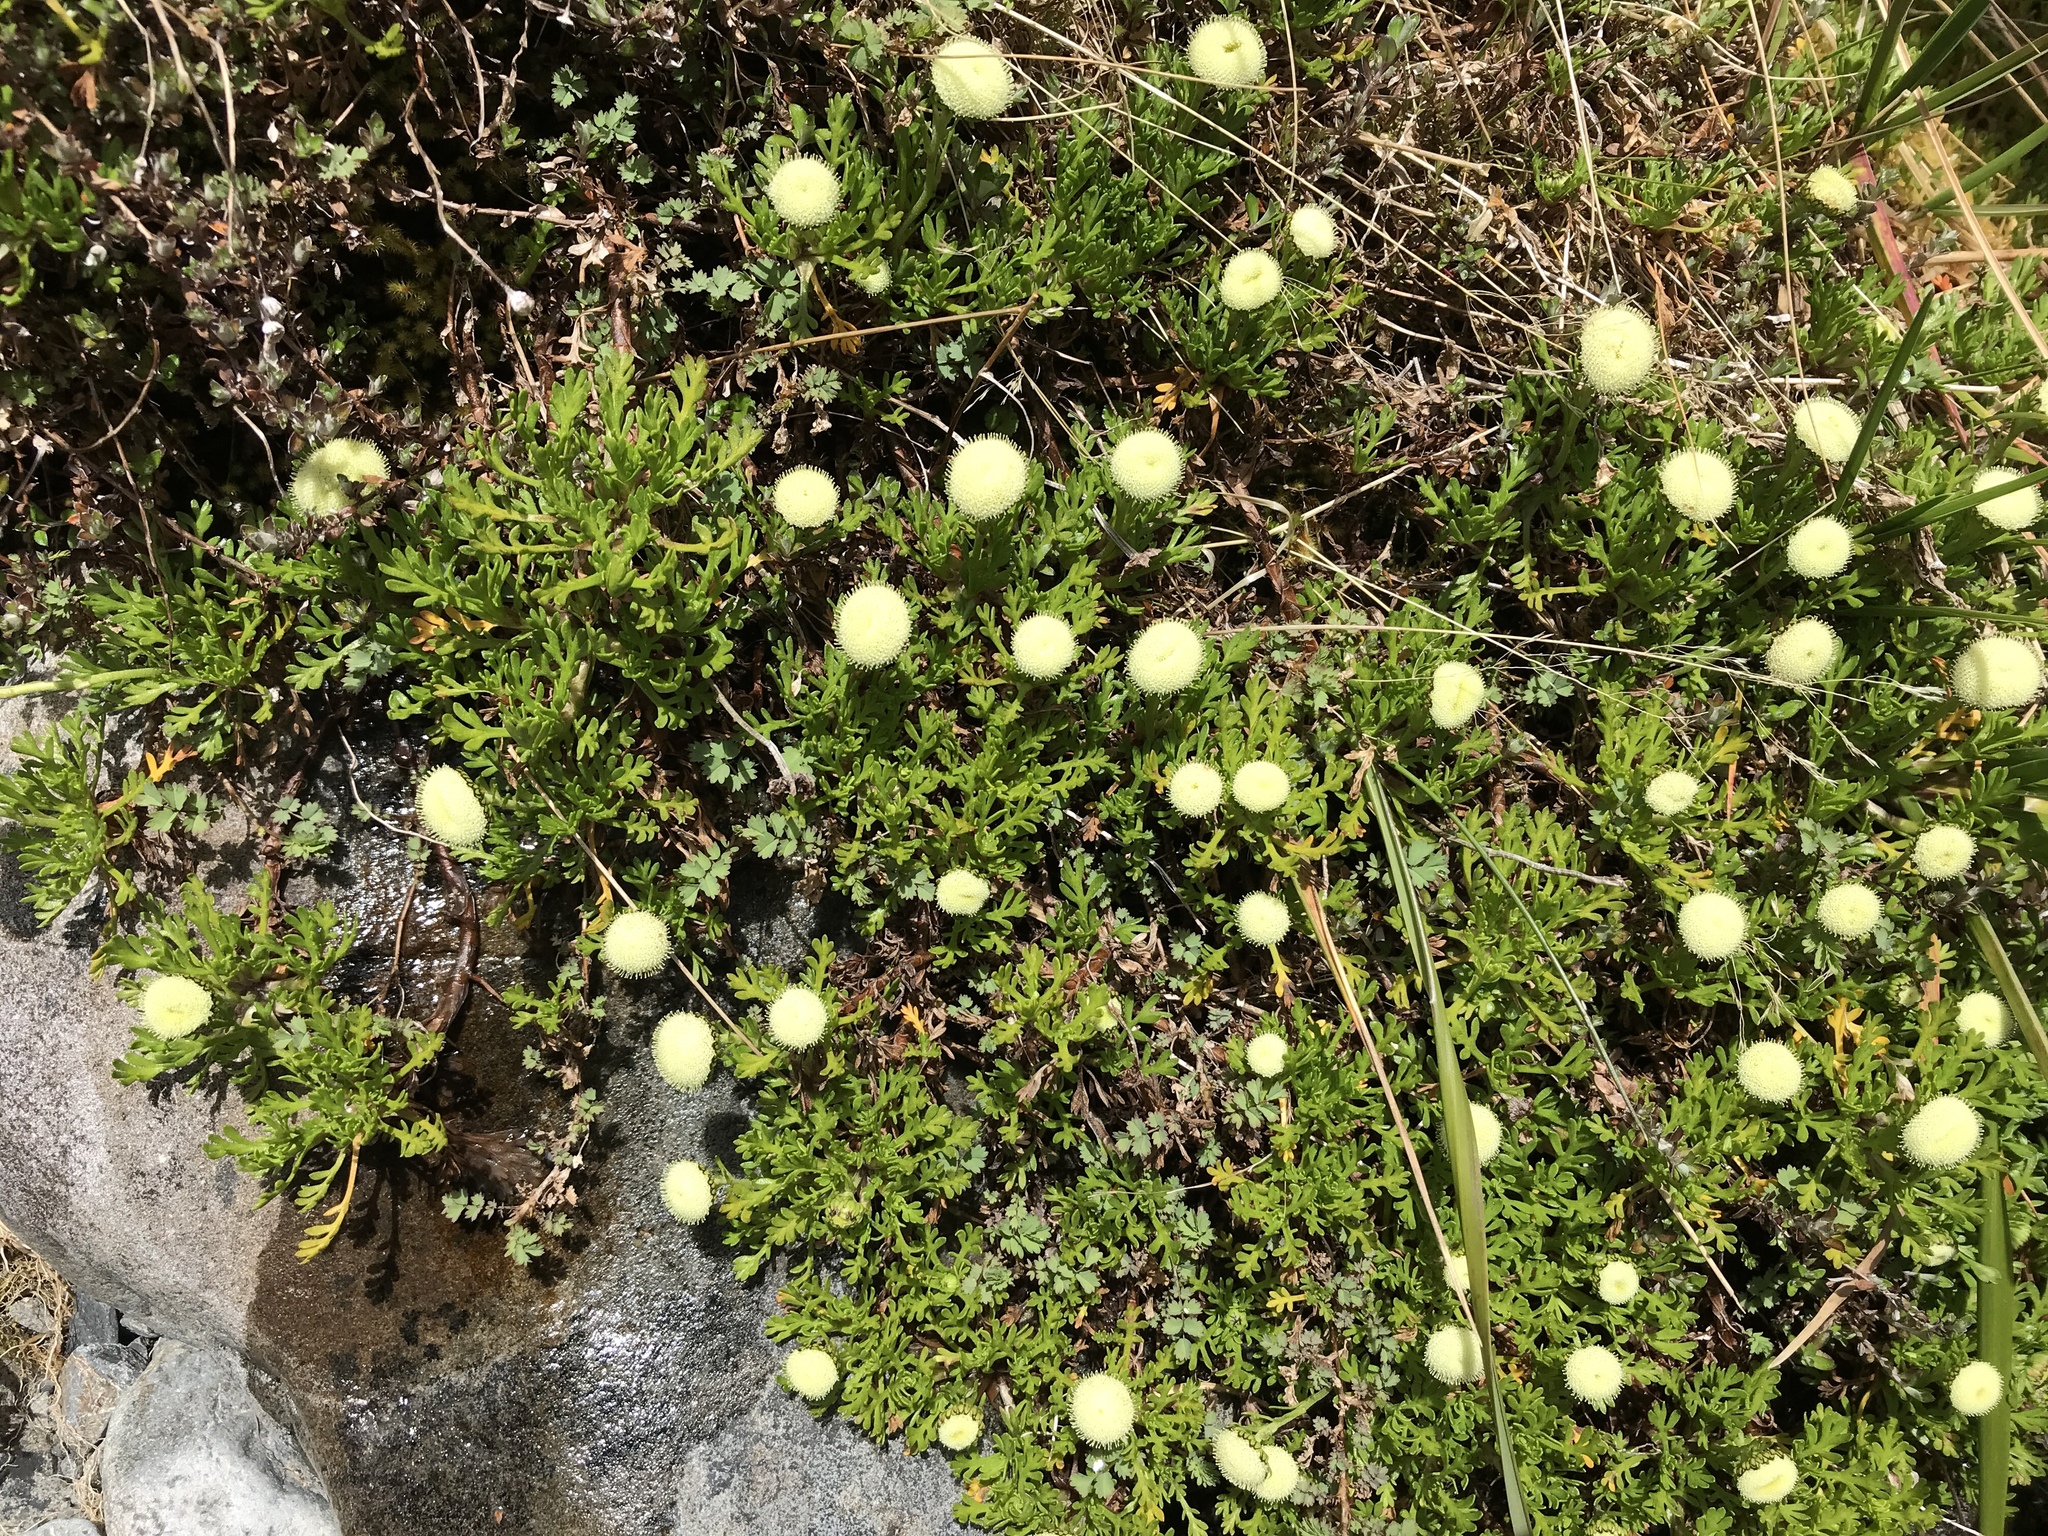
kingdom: Plantae
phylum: Tracheophyta
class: Magnoliopsida
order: Asterales
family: Asteraceae
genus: Leptinella
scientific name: Leptinella pyrethrifolia
